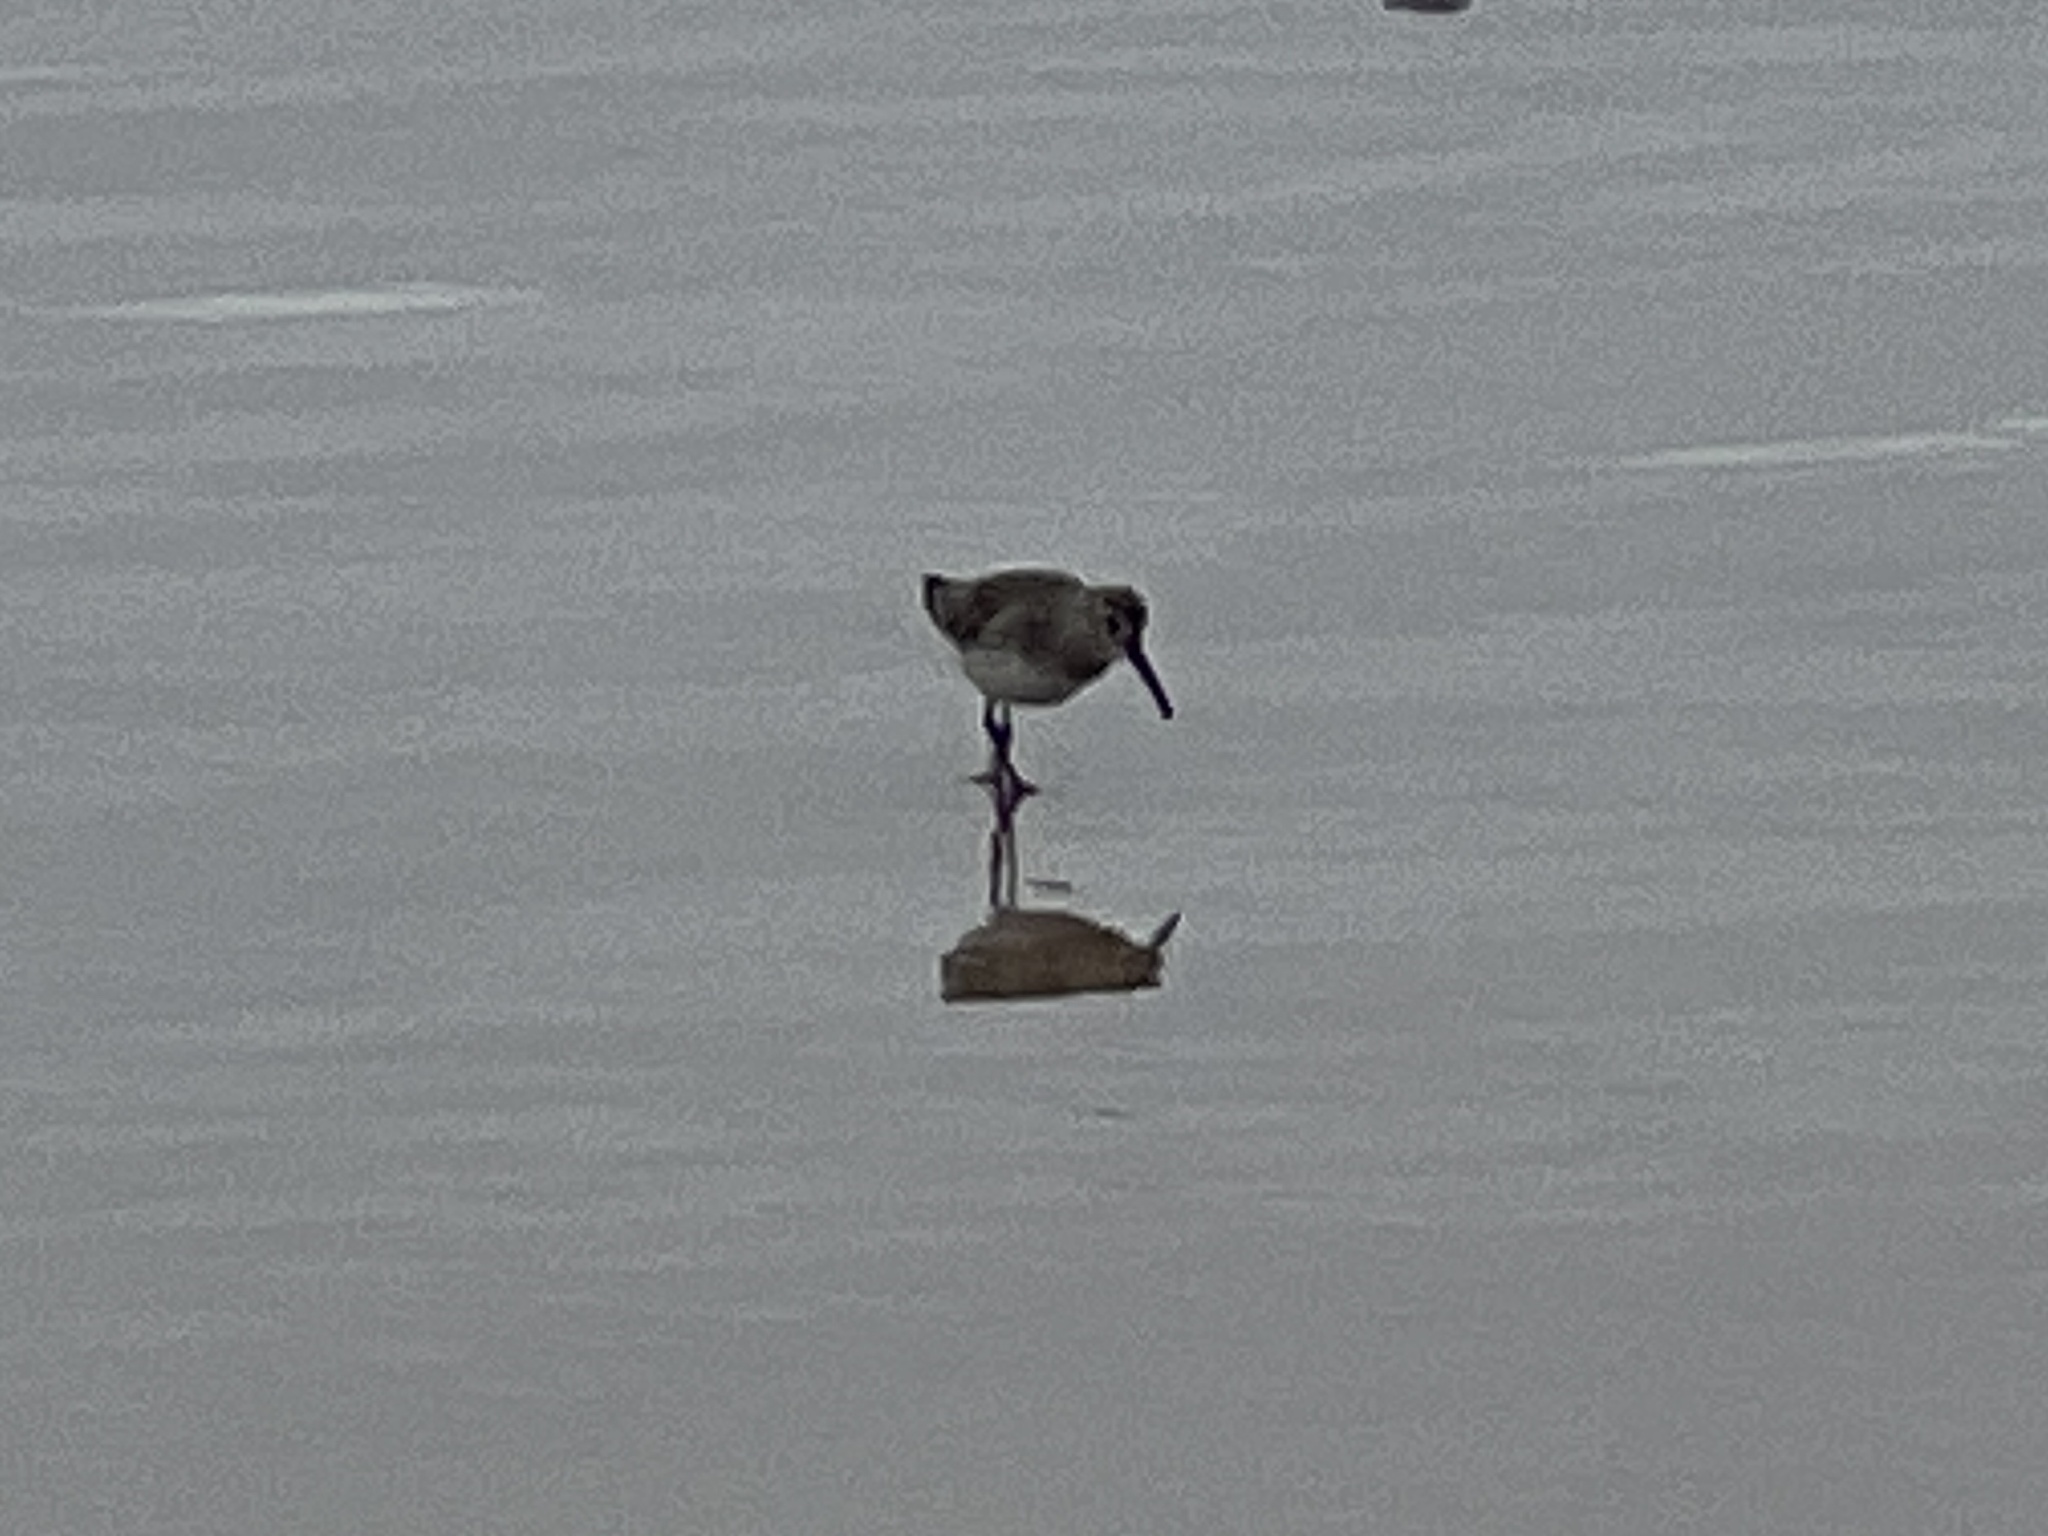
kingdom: Animalia
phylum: Chordata
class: Aves
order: Charadriiformes
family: Scolopacidae
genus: Calidris
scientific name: Calidris alpina
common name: Dunlin
